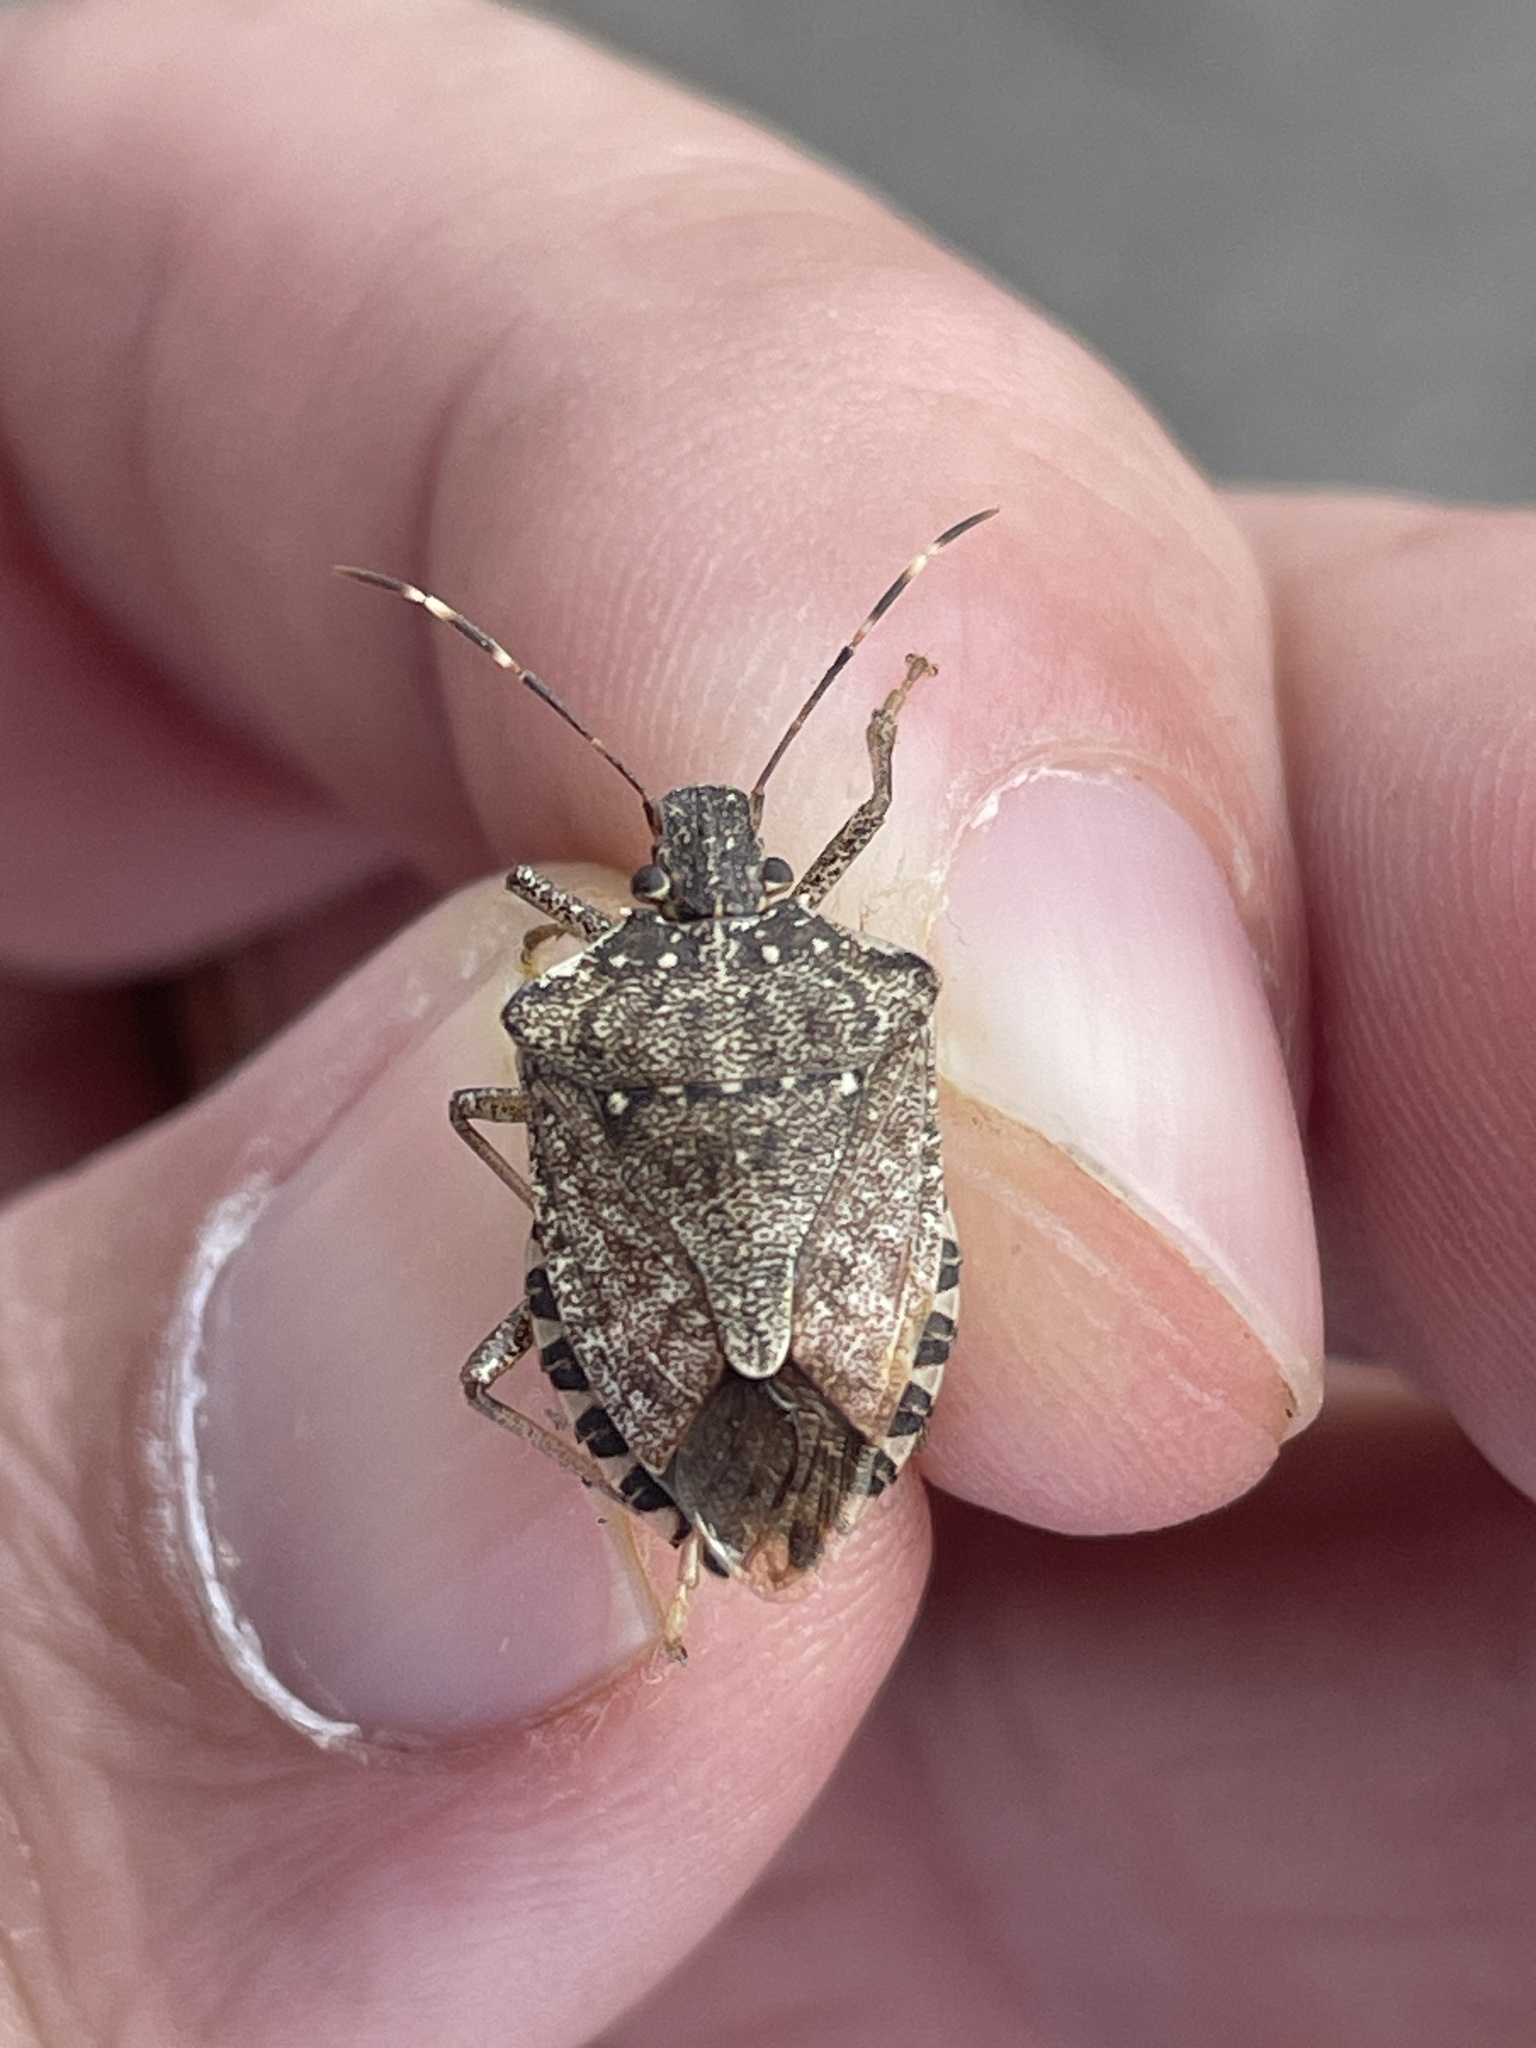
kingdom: Animalia
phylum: Arthropoda
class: Insecta
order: Hemiptera
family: Pentatomidae
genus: Halyomorpha
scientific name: Halyomorpha halys
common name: Brown marmorated stink bug
